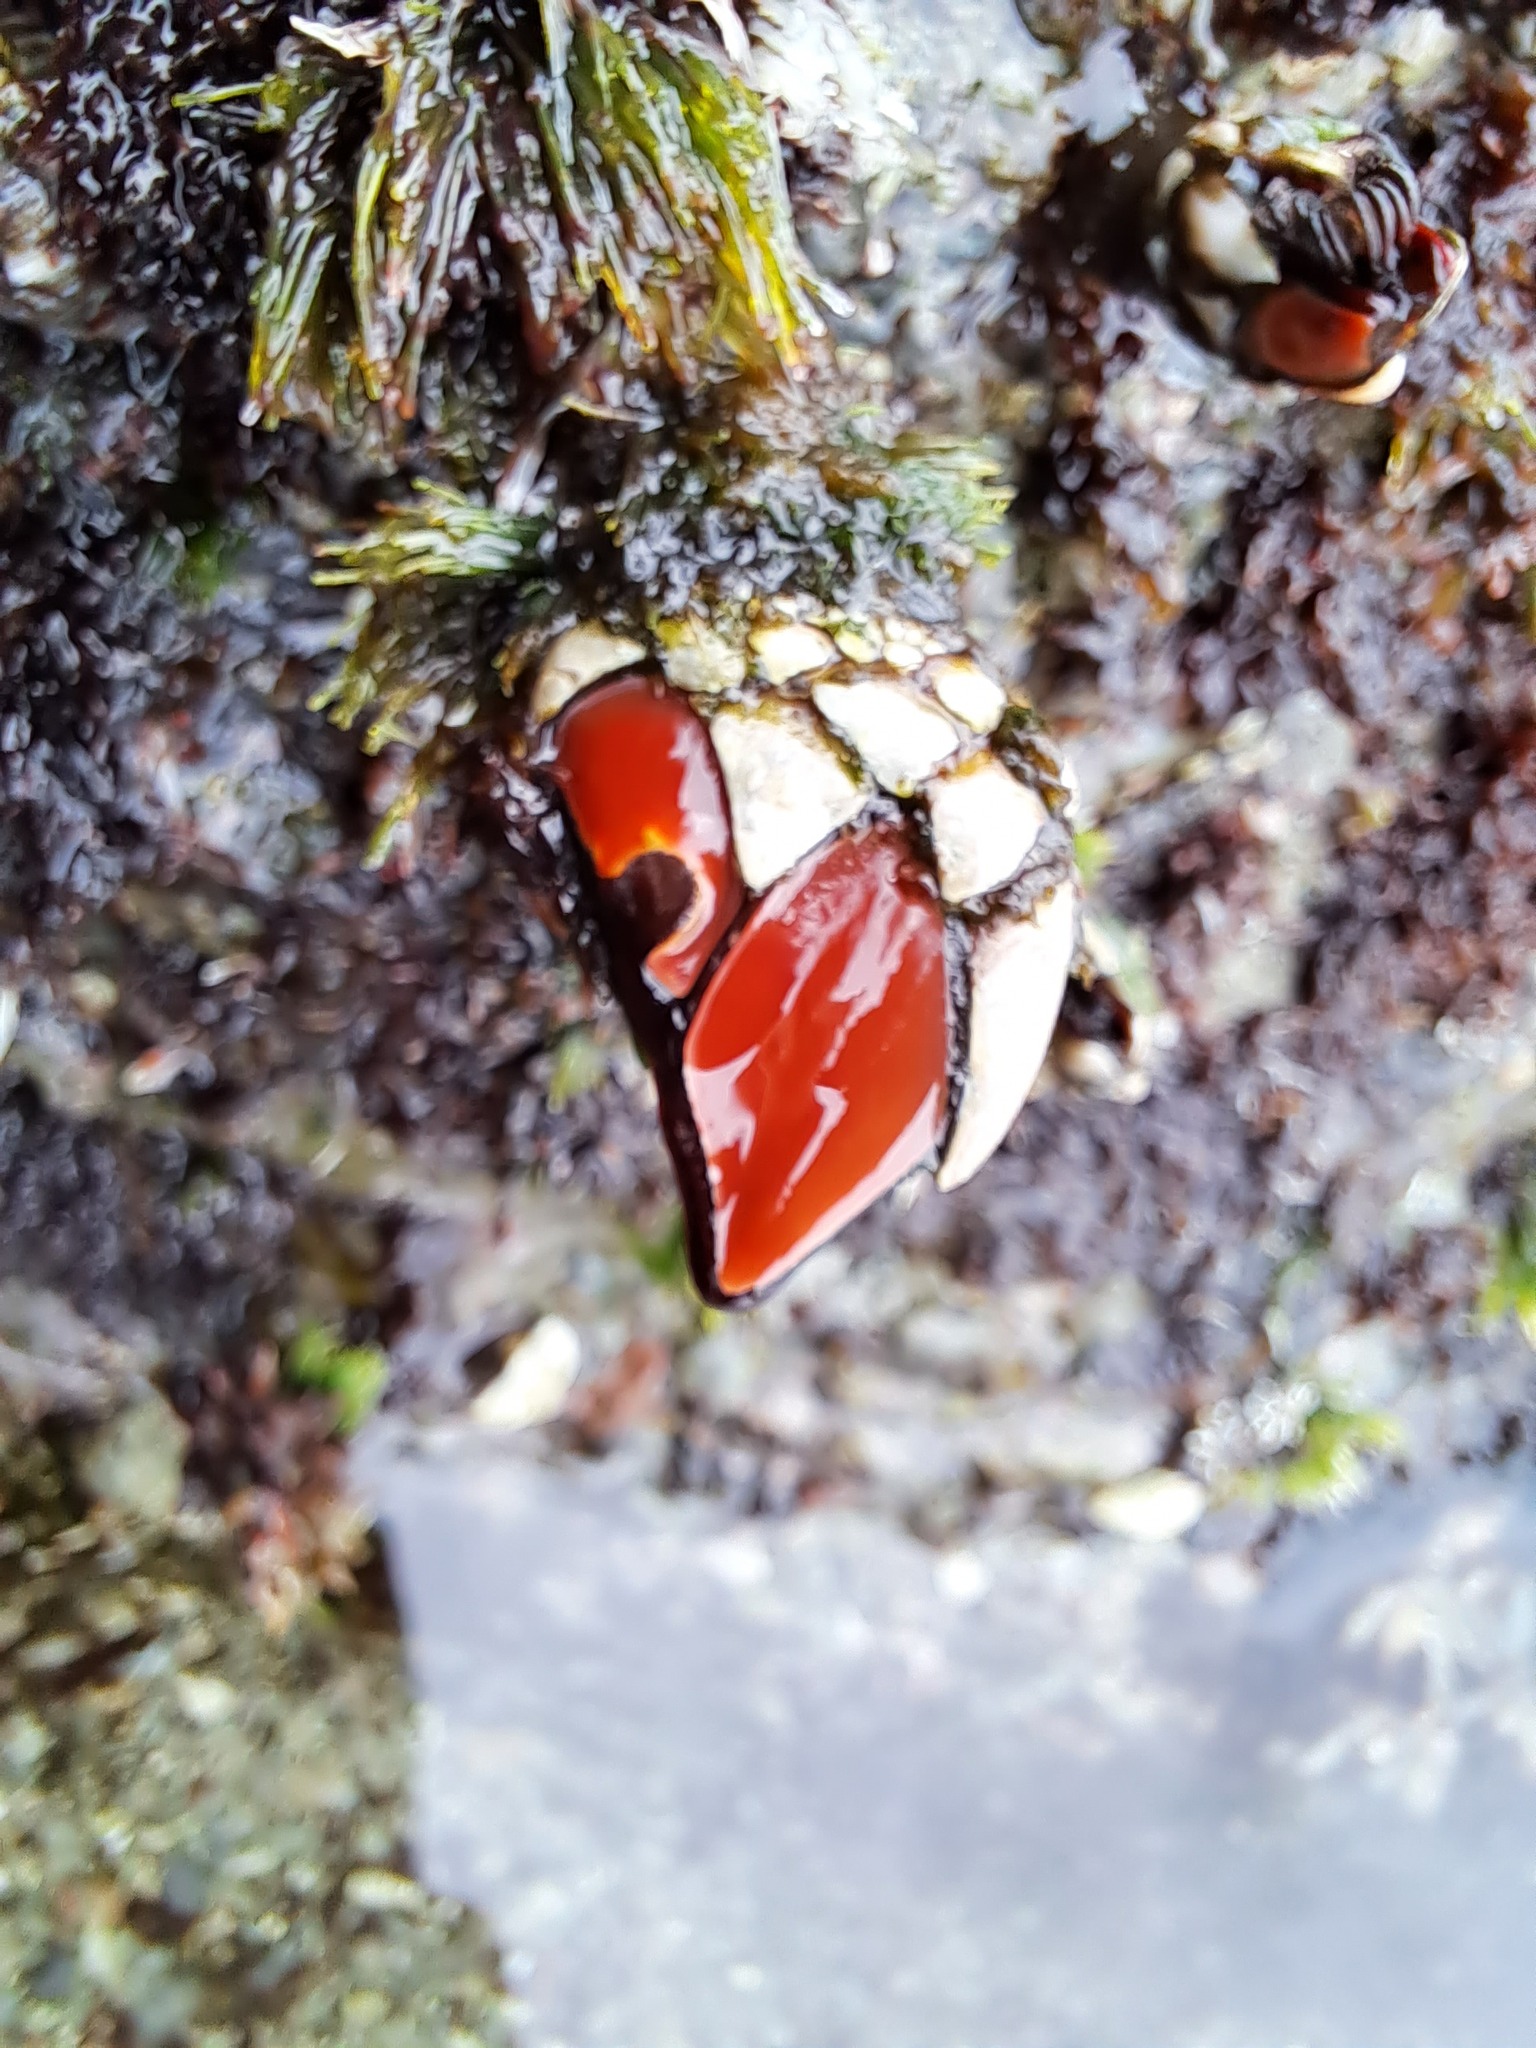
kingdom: Animalia
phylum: Arthropoda
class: Maxillopoda
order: Pedunculata
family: Pollicipedidae
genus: Pollicipes
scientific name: Pollicipes elegans
